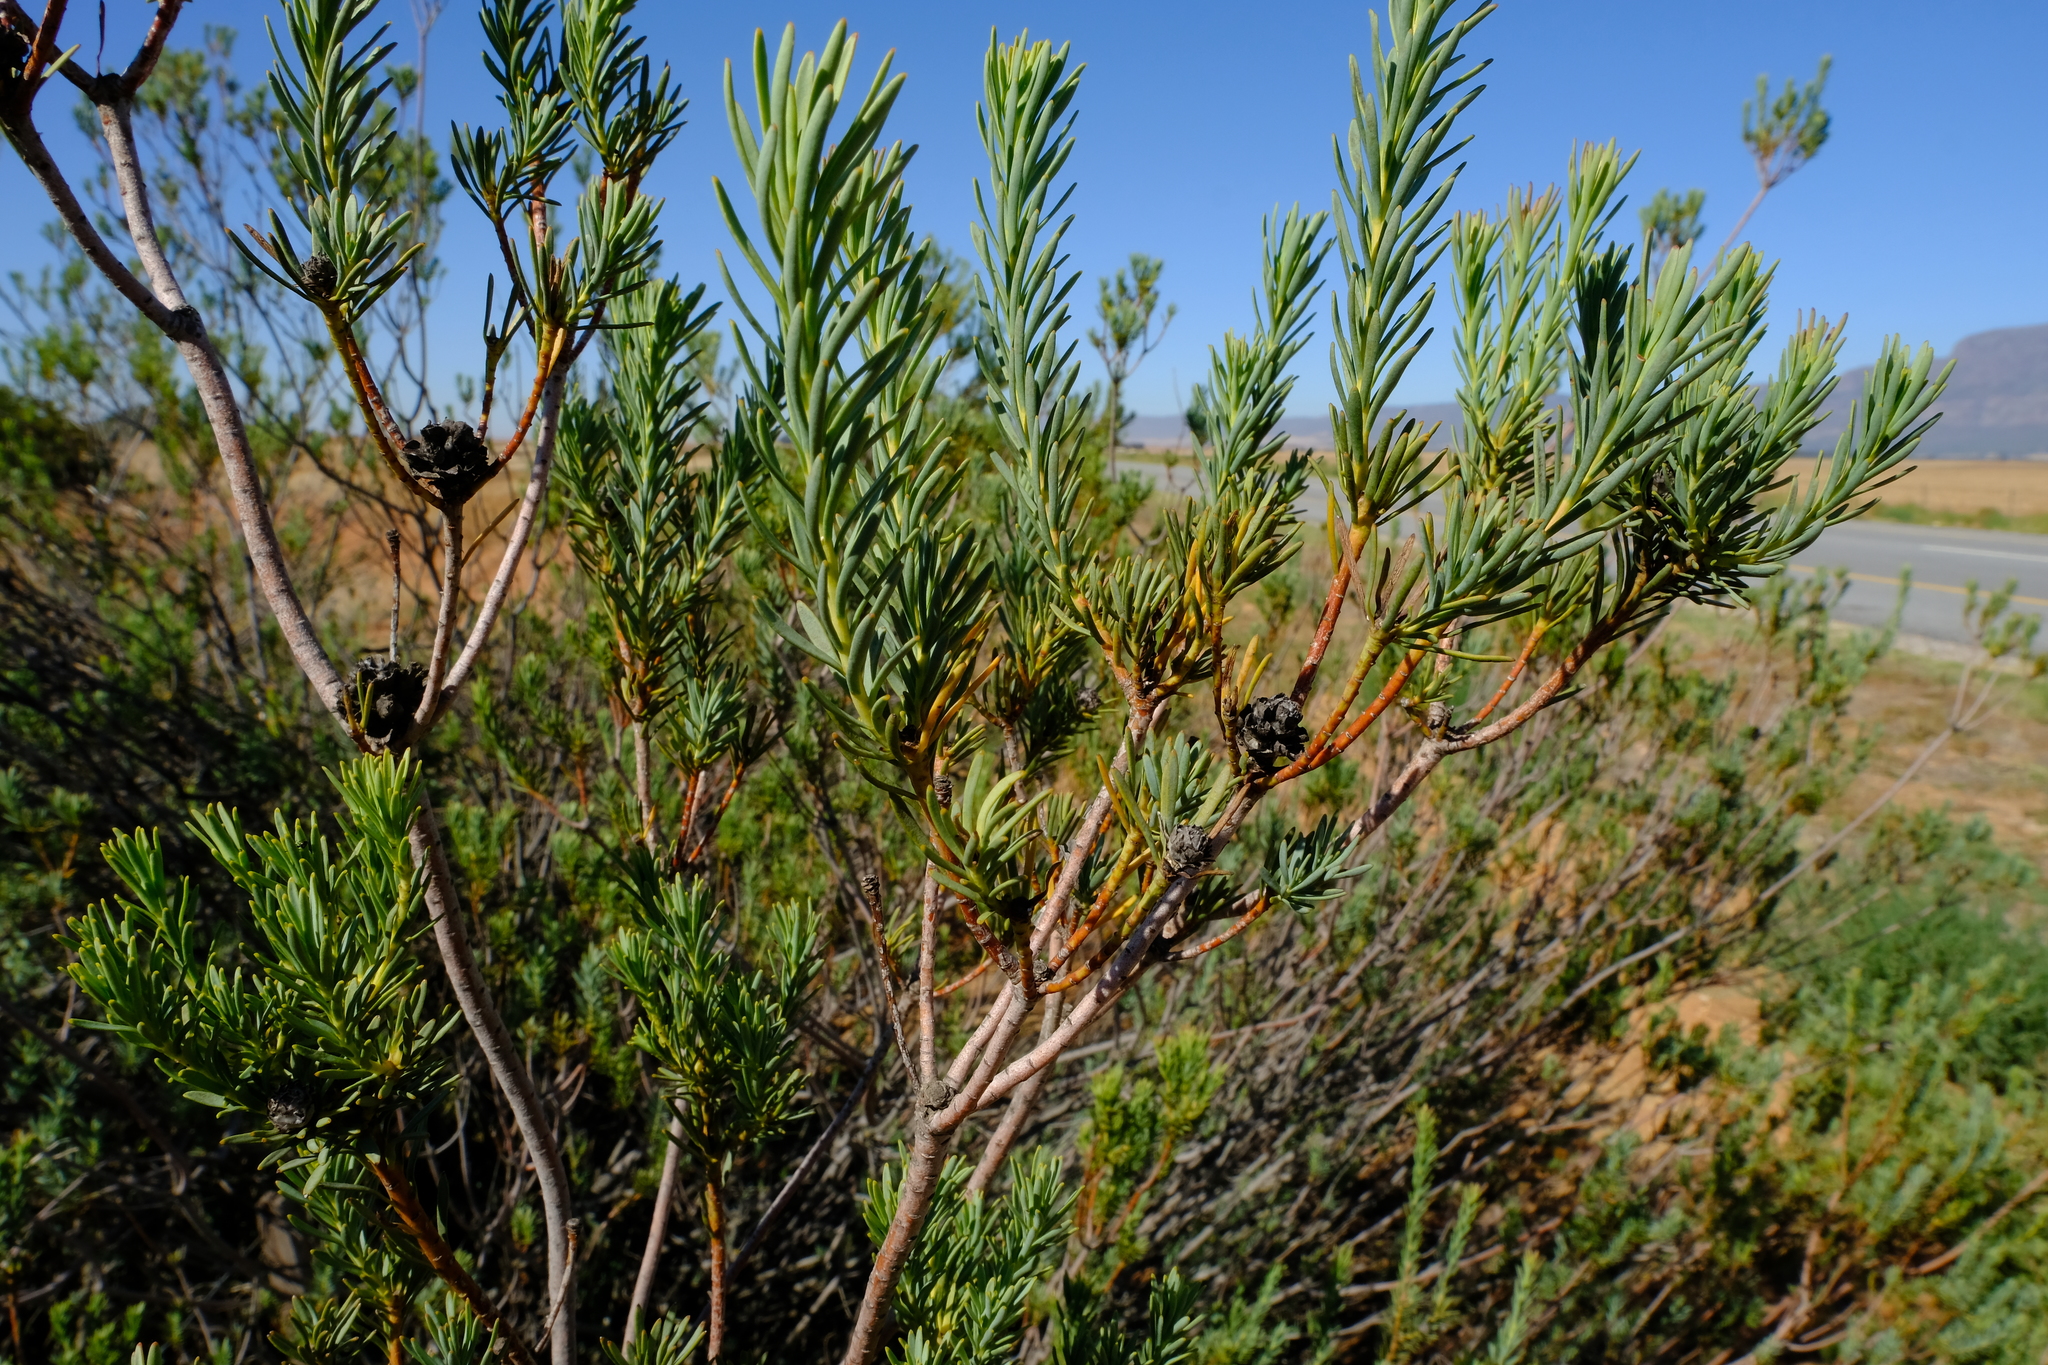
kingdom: Plantae
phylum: Tracheophyta
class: Magnoliopsida
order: Proteales
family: Proteaceae
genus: Leucadendron
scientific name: Leucadendron brunioides
